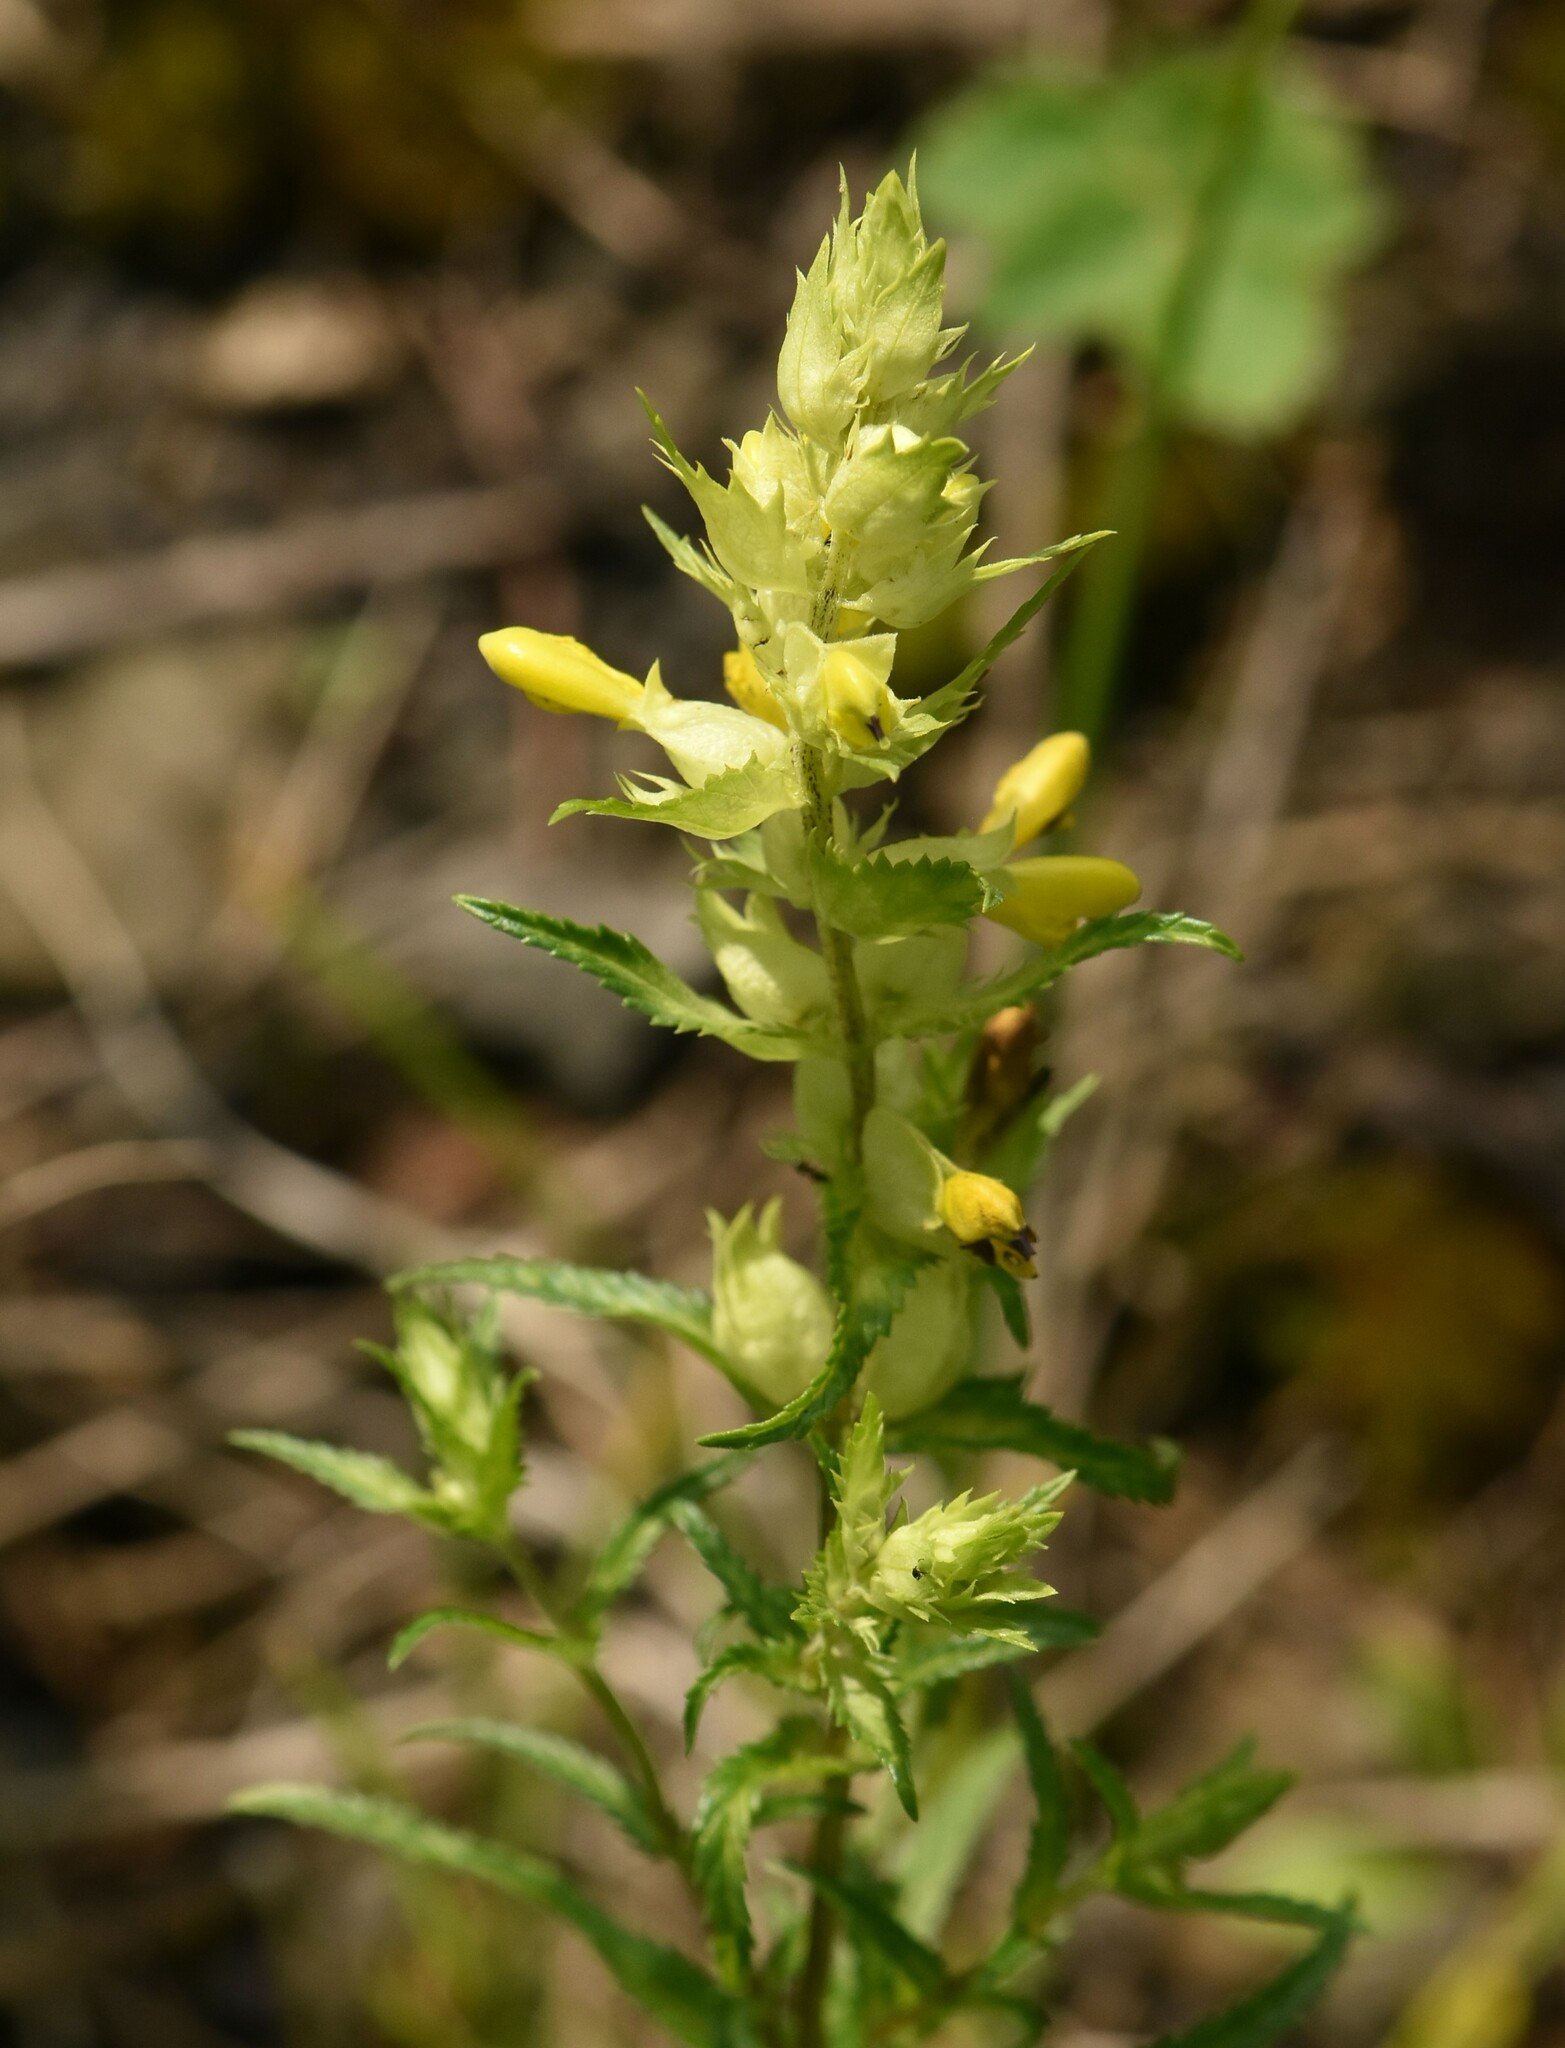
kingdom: Plantae
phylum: Tracheophyta
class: Magnoliopsida
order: Lamiales
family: Orobanchaceae
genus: Rhinanthus
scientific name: Rhinanthus serotinus
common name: Late-flowering yellow rattle
